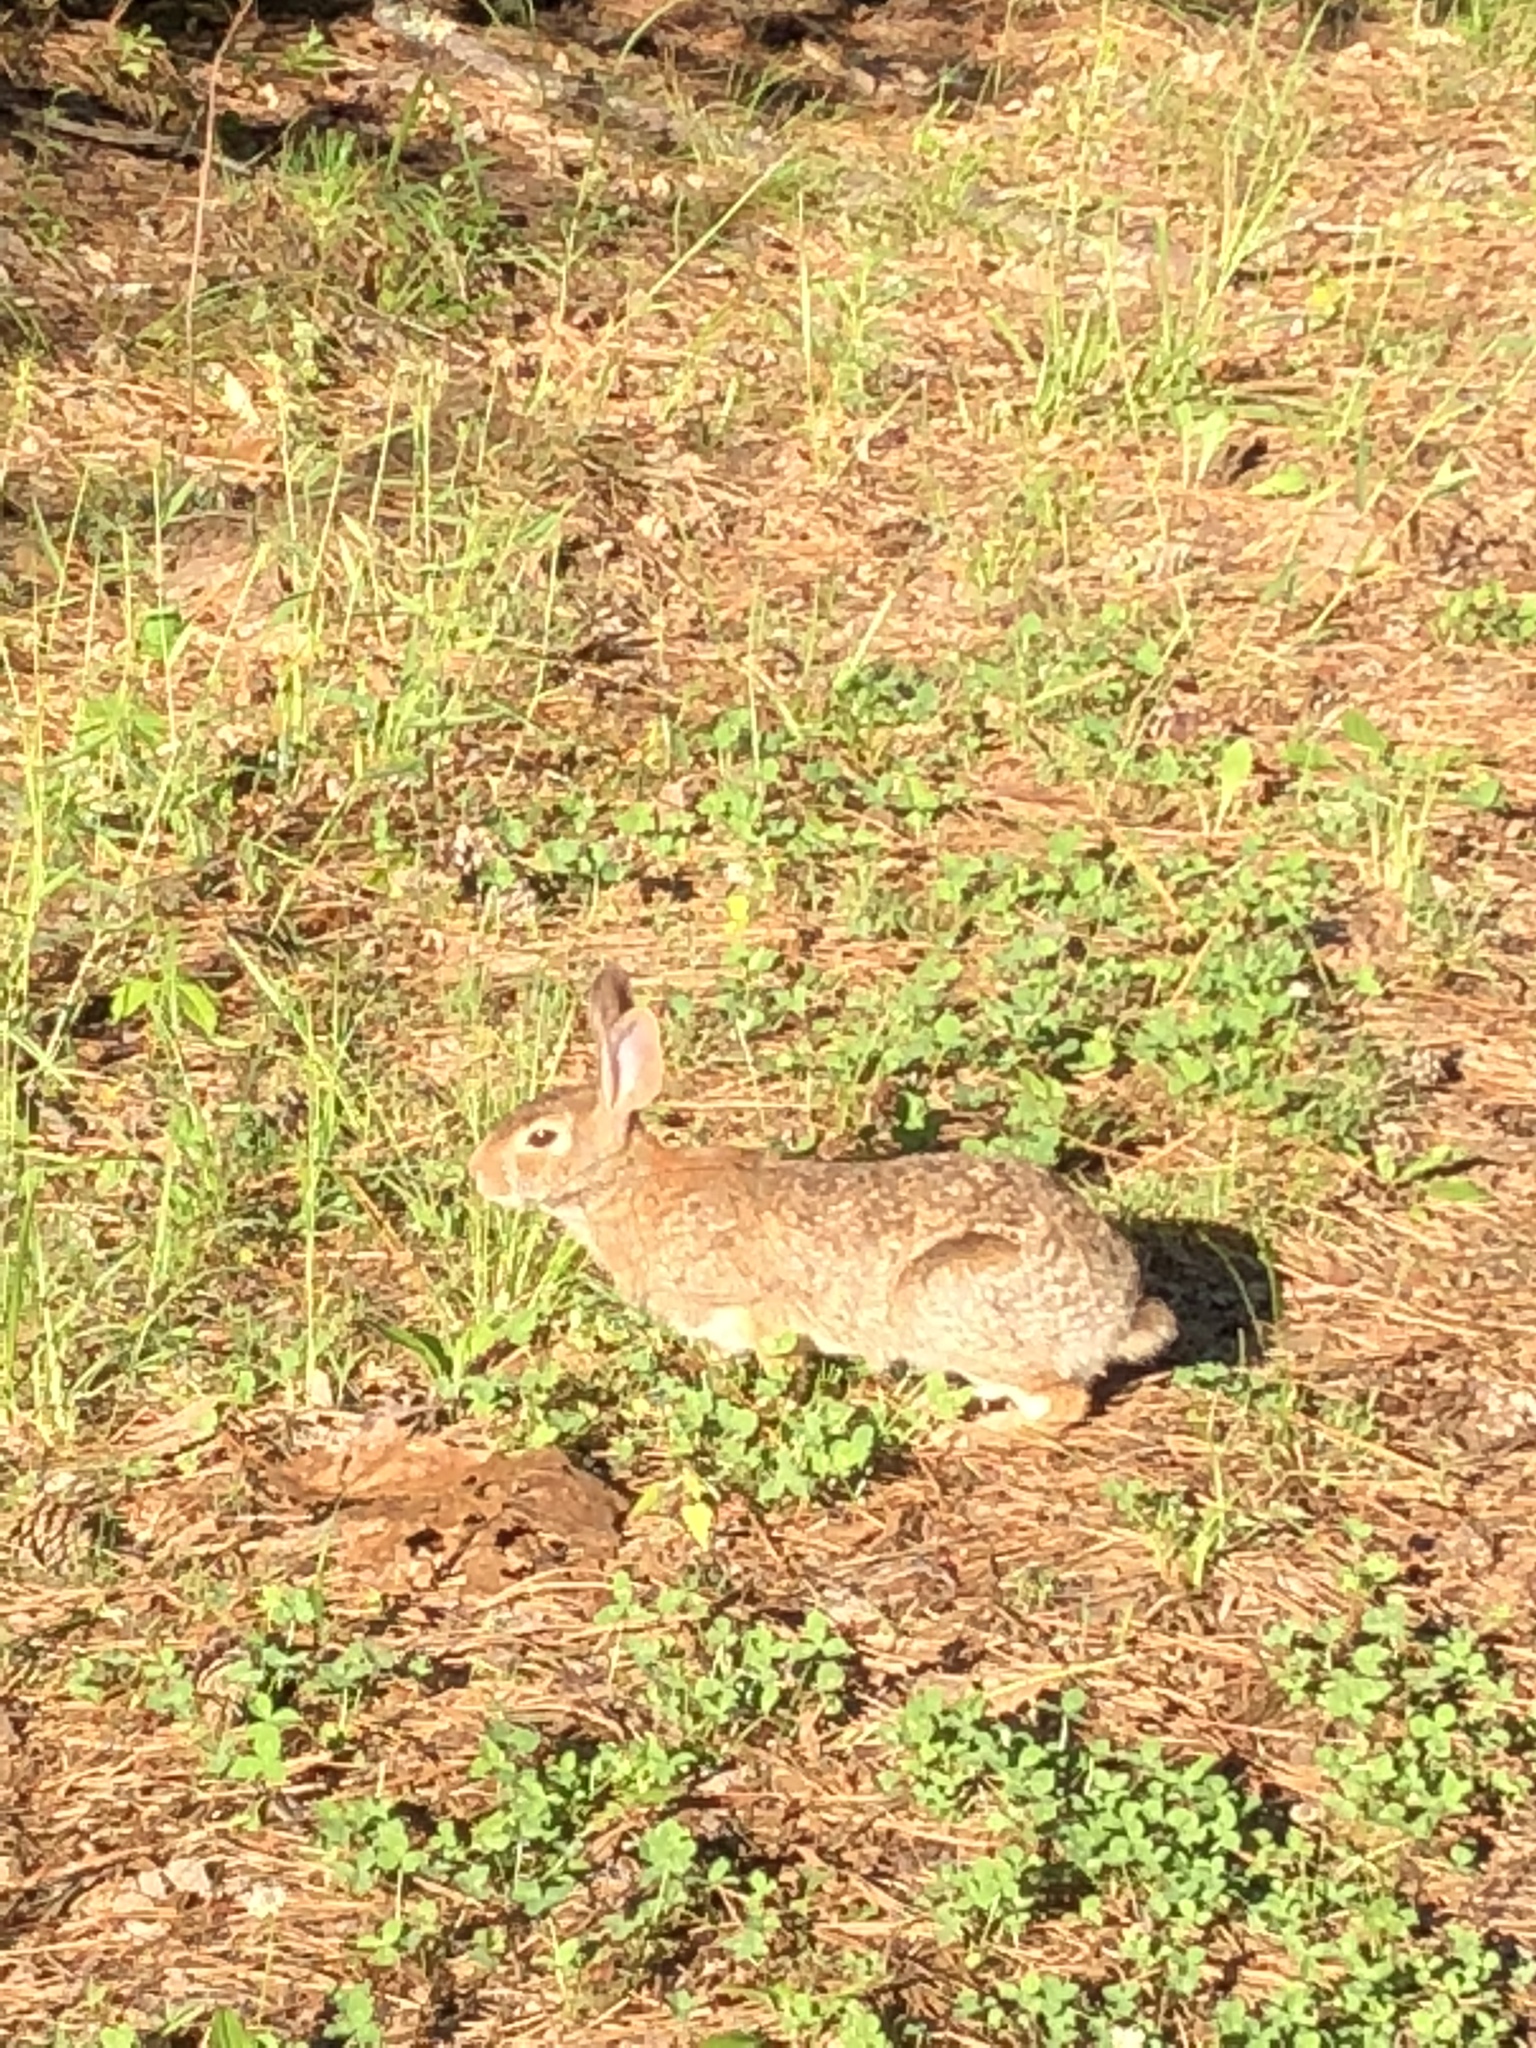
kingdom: Animalia
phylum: Chordata
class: Mammalia
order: Lagomorpha
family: Leporidae
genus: Sylvilagus
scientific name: Sylvilagus floridanus
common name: Eastern cottontail
